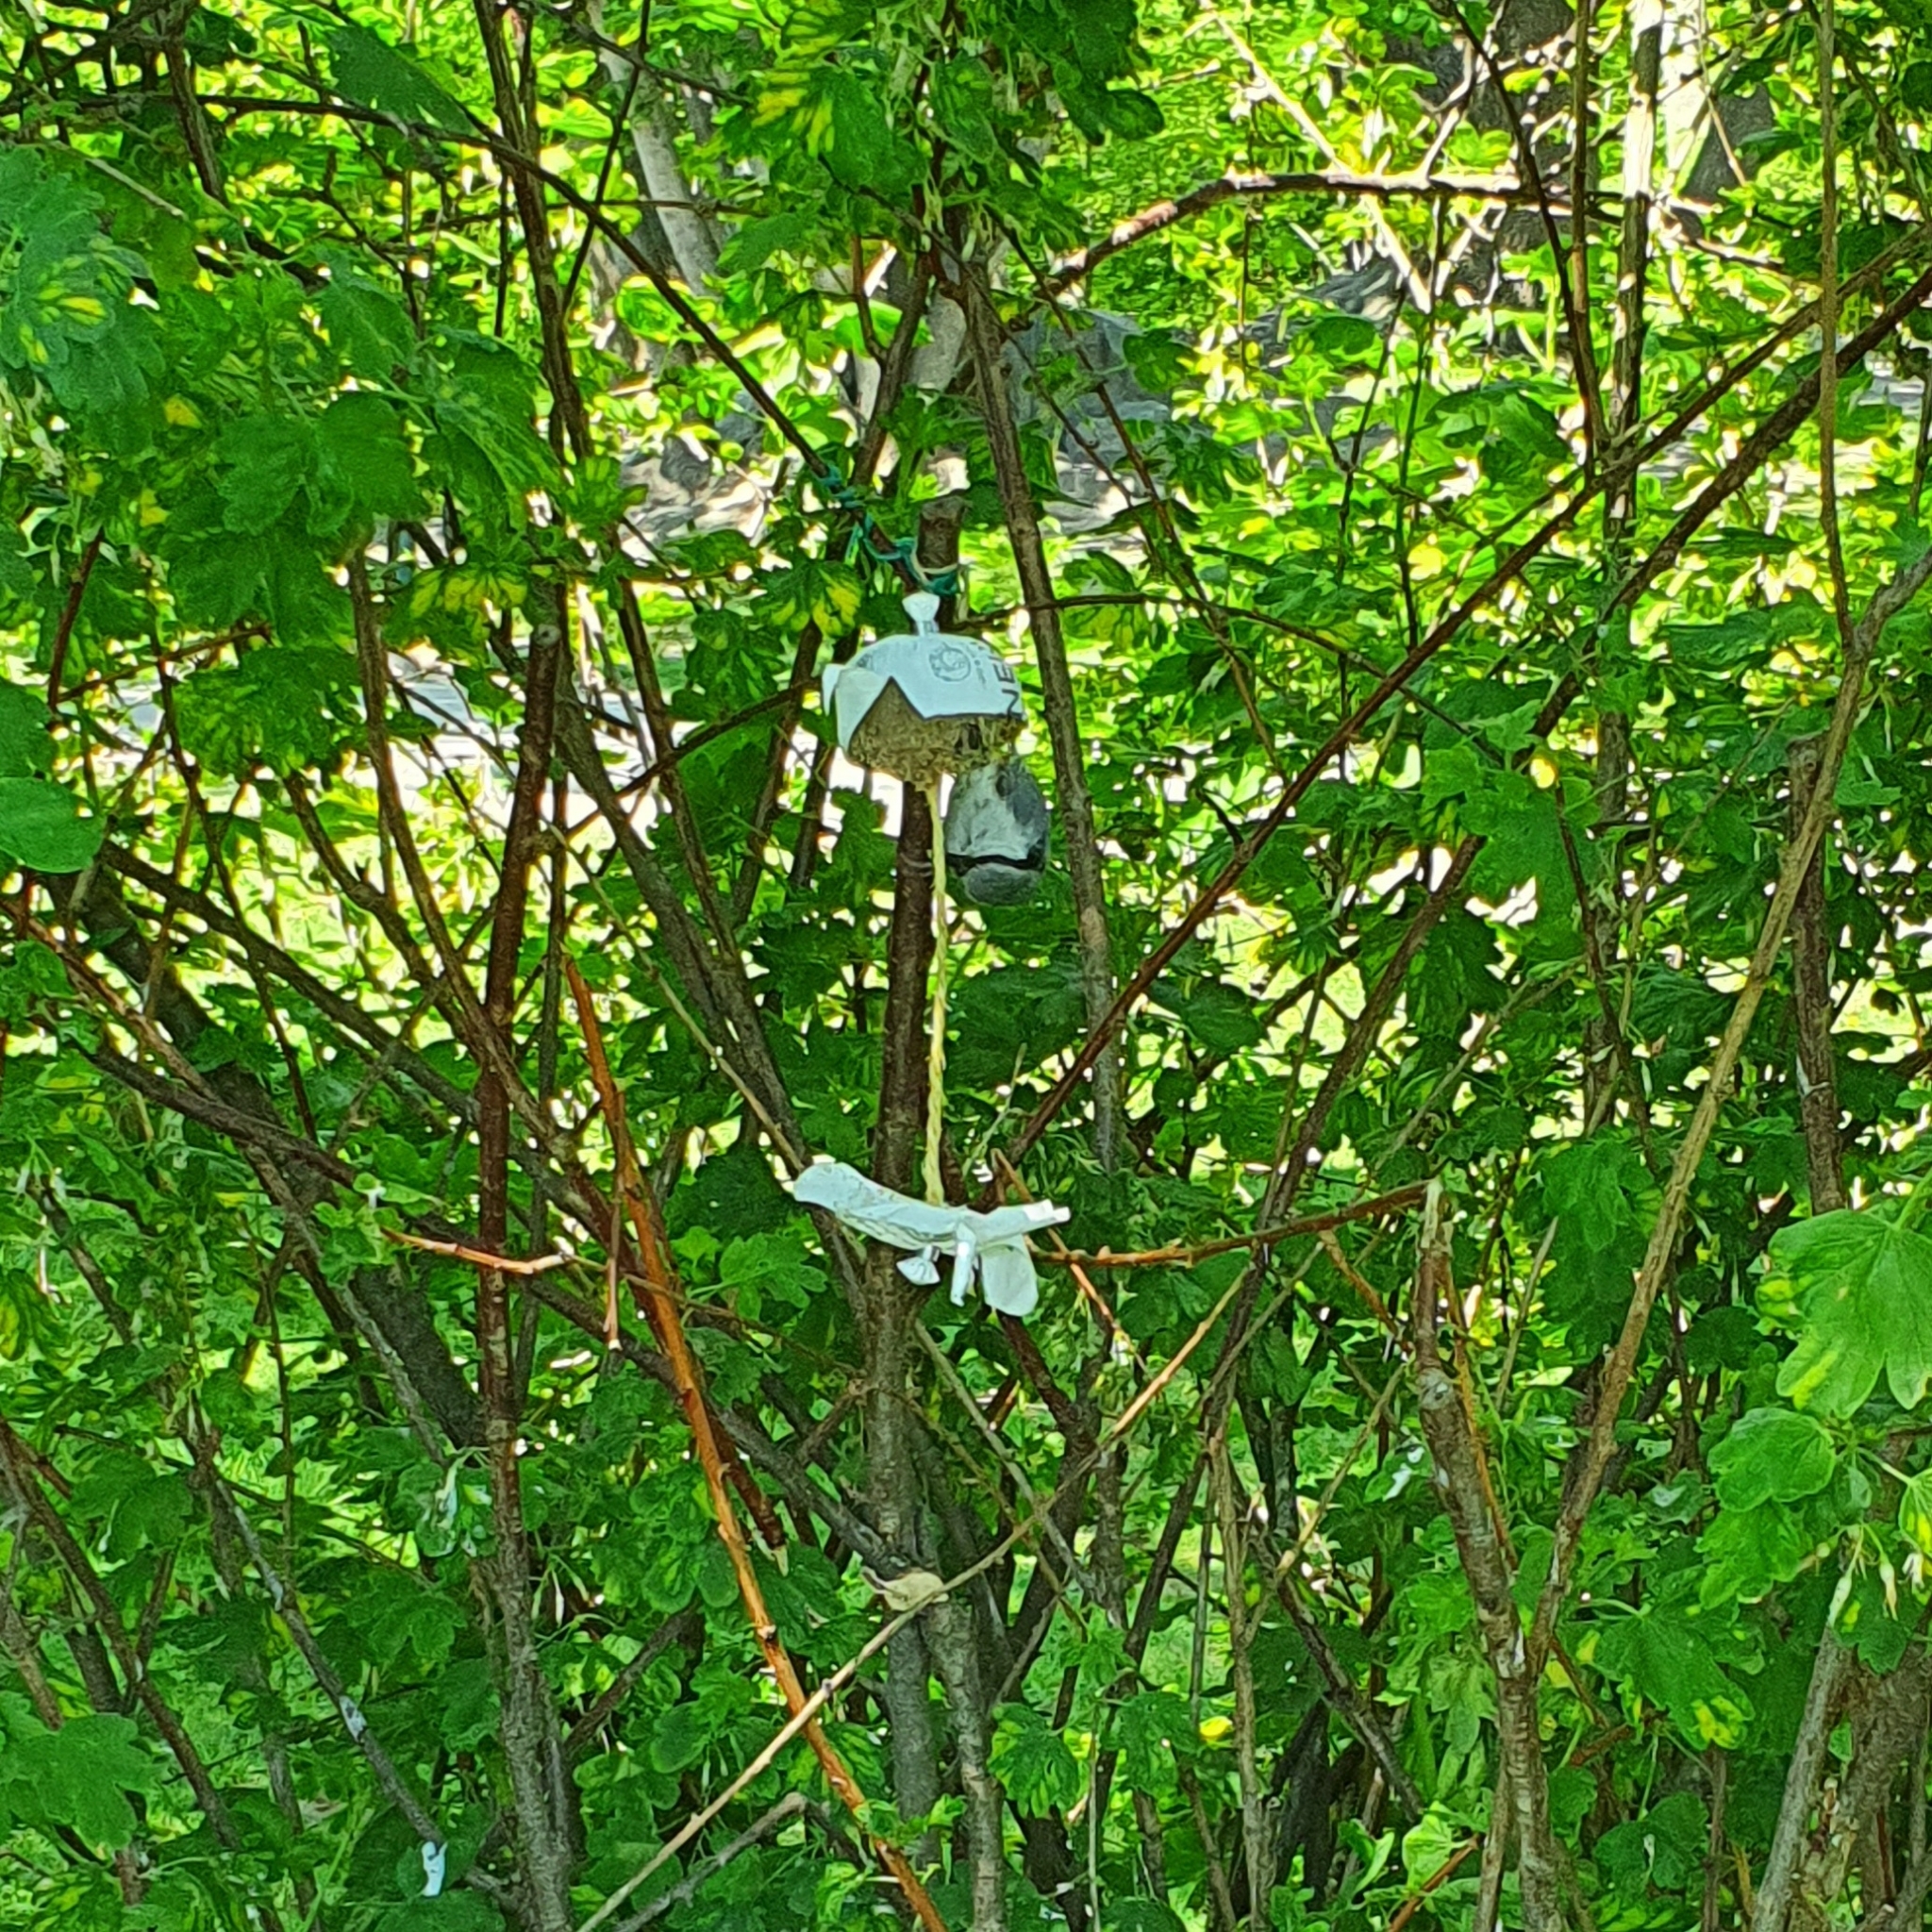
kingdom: Animalia
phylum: Chordata
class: Aves
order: Passeriformes
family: Sittidae
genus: Sitta
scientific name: Sitta europaea
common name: Eurasian nuthatch
